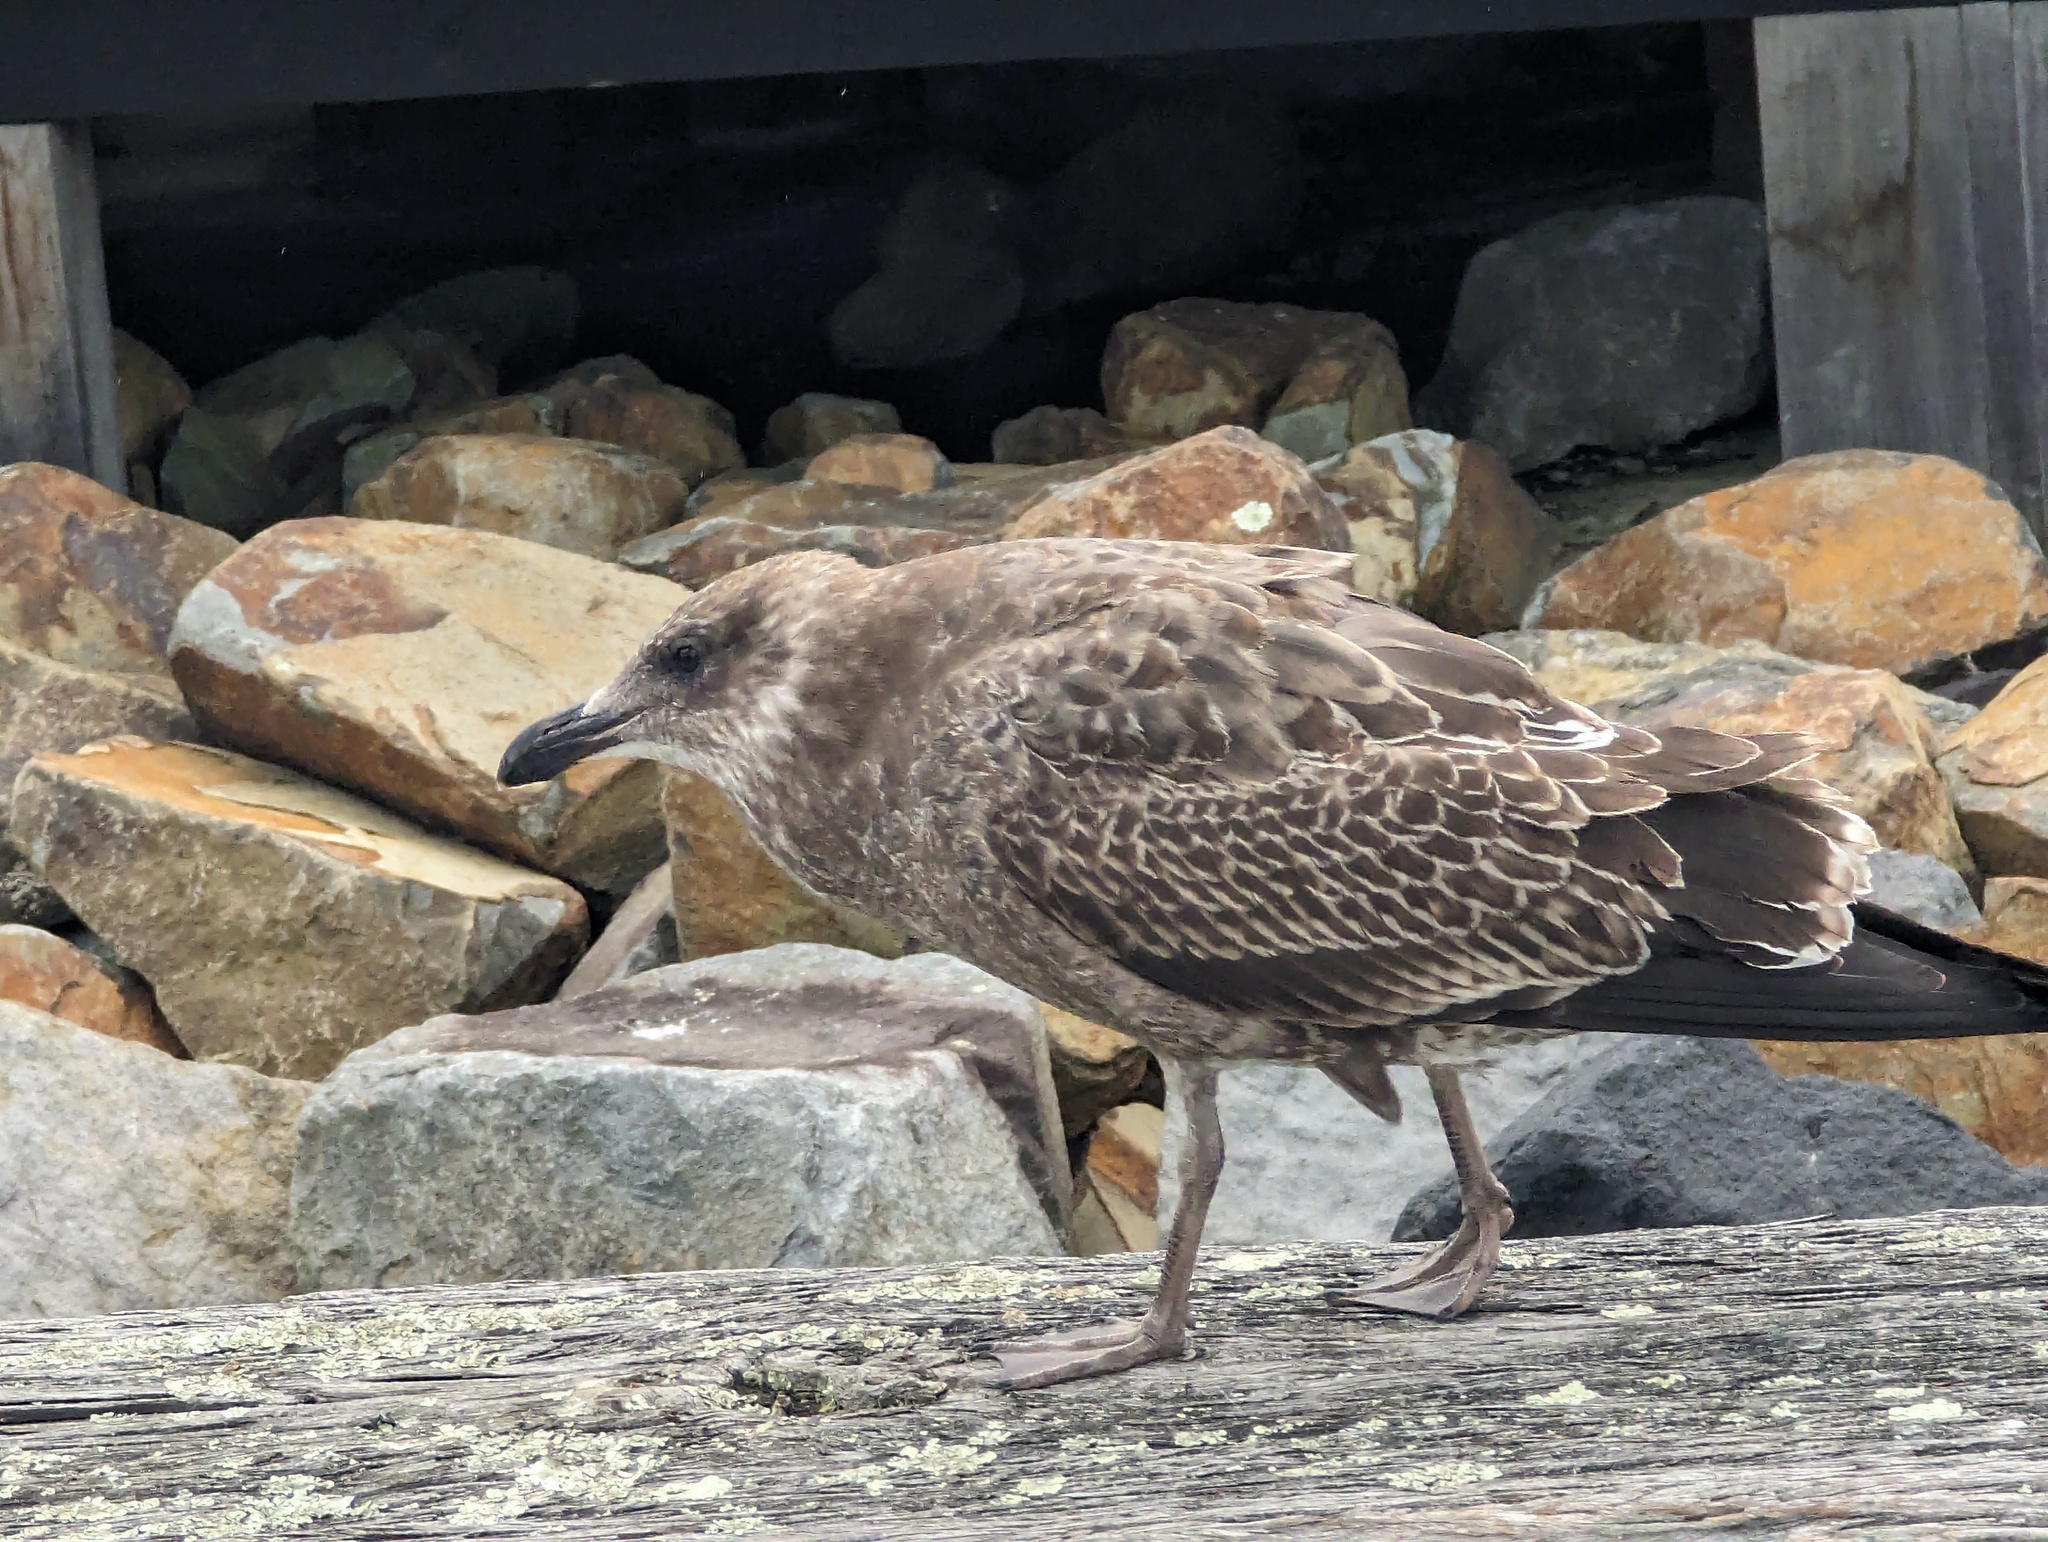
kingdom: Animalia
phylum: Chordata
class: Aves
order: Charadriiformes
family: Laridae
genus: Larus
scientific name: Larus dominicanus
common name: Kelp gull
